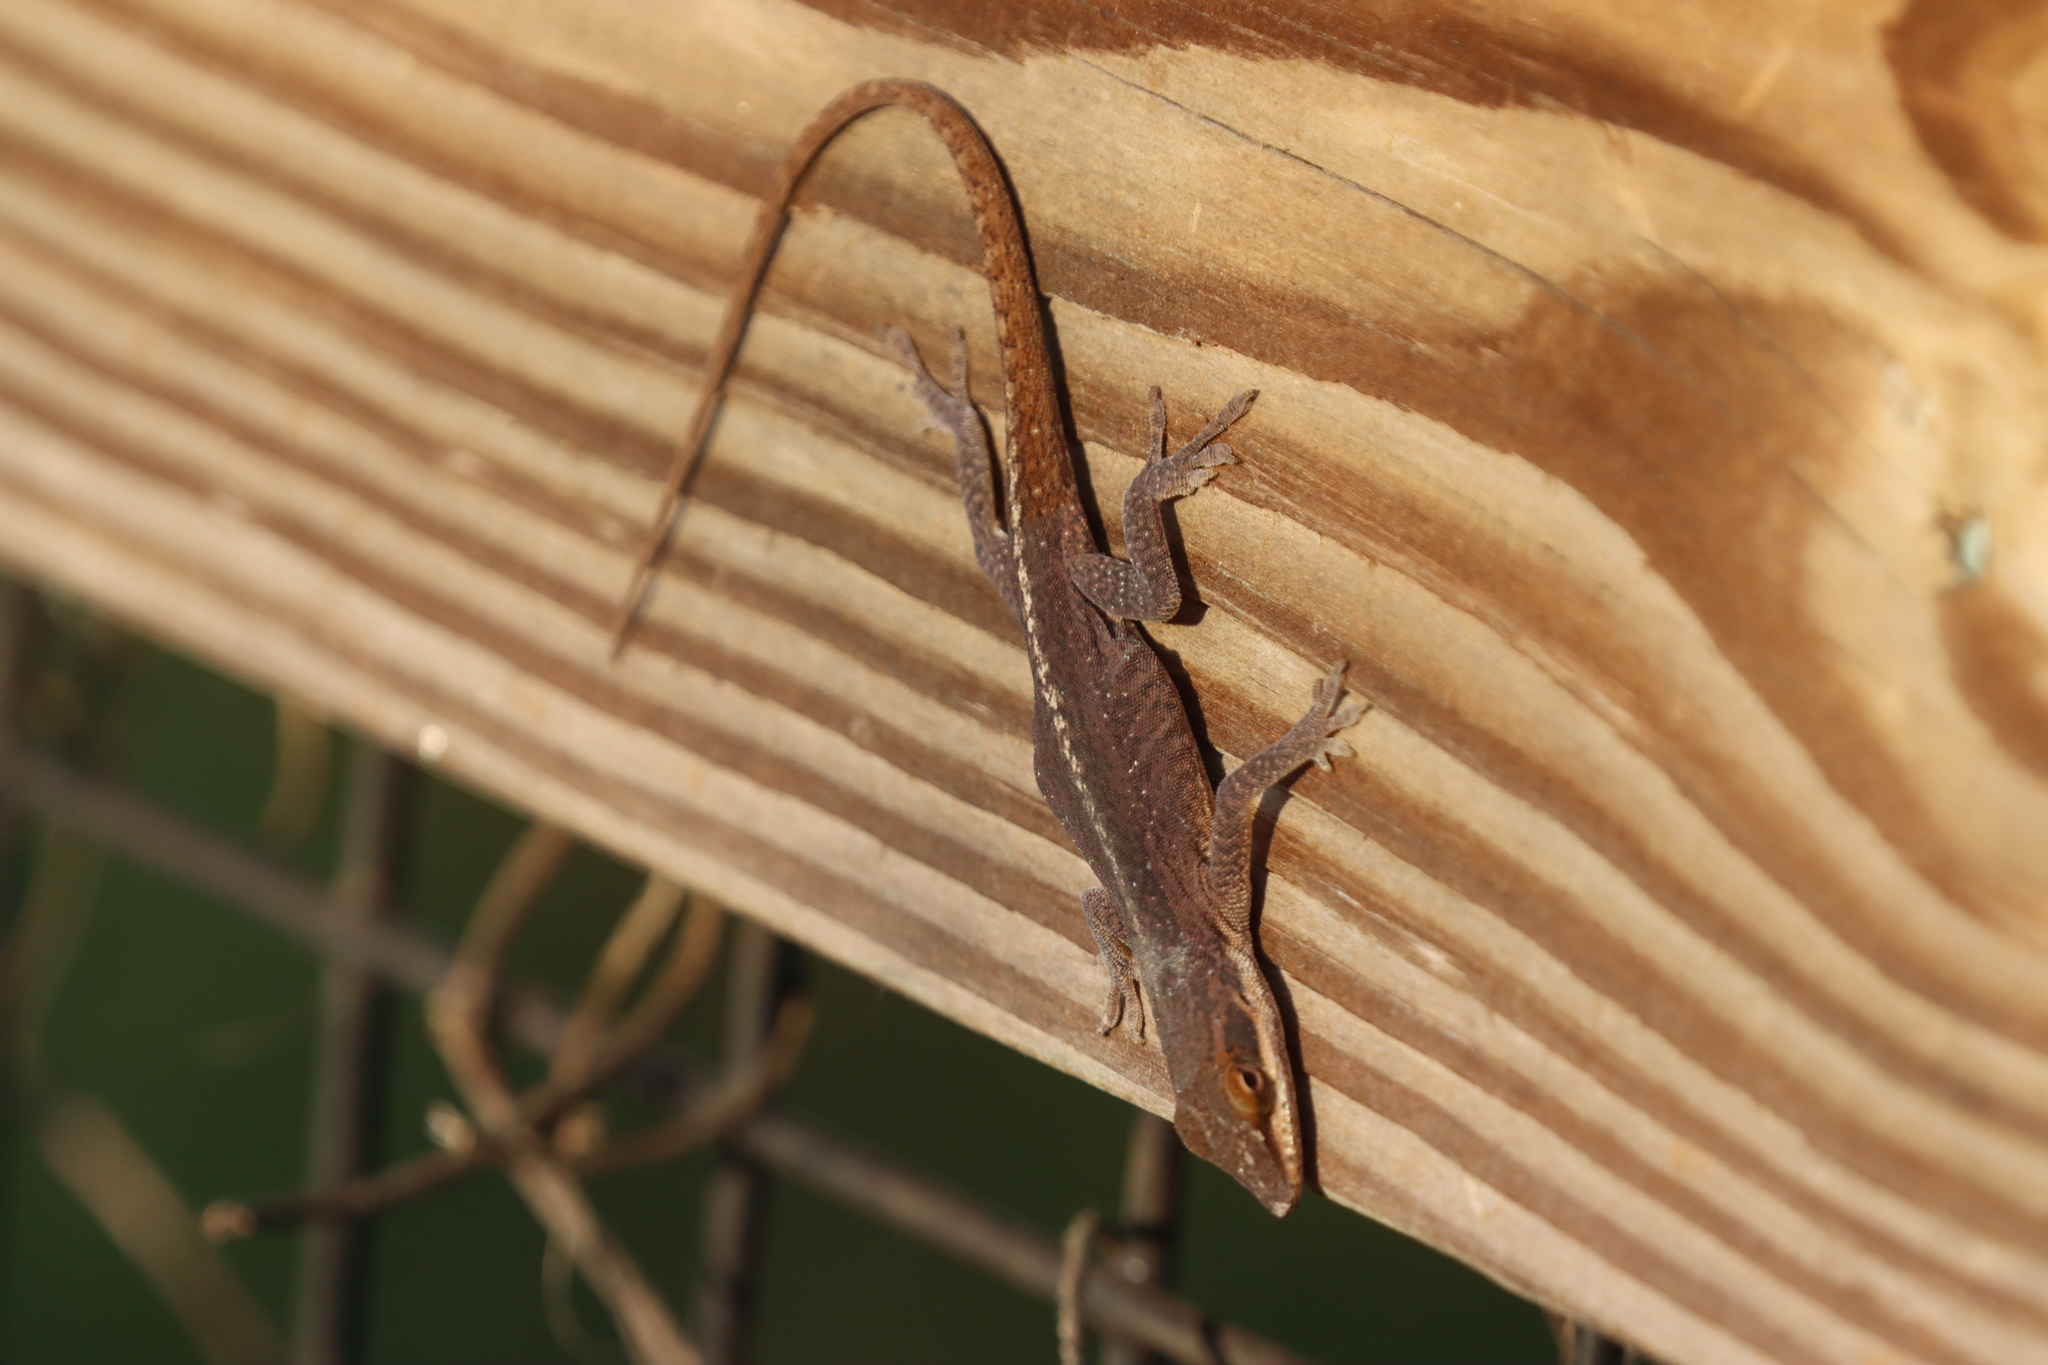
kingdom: Animalia
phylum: Chordata
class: Squamata
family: Dactyloidae
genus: Anolis
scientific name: Anolis carolinensis
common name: Green anole
